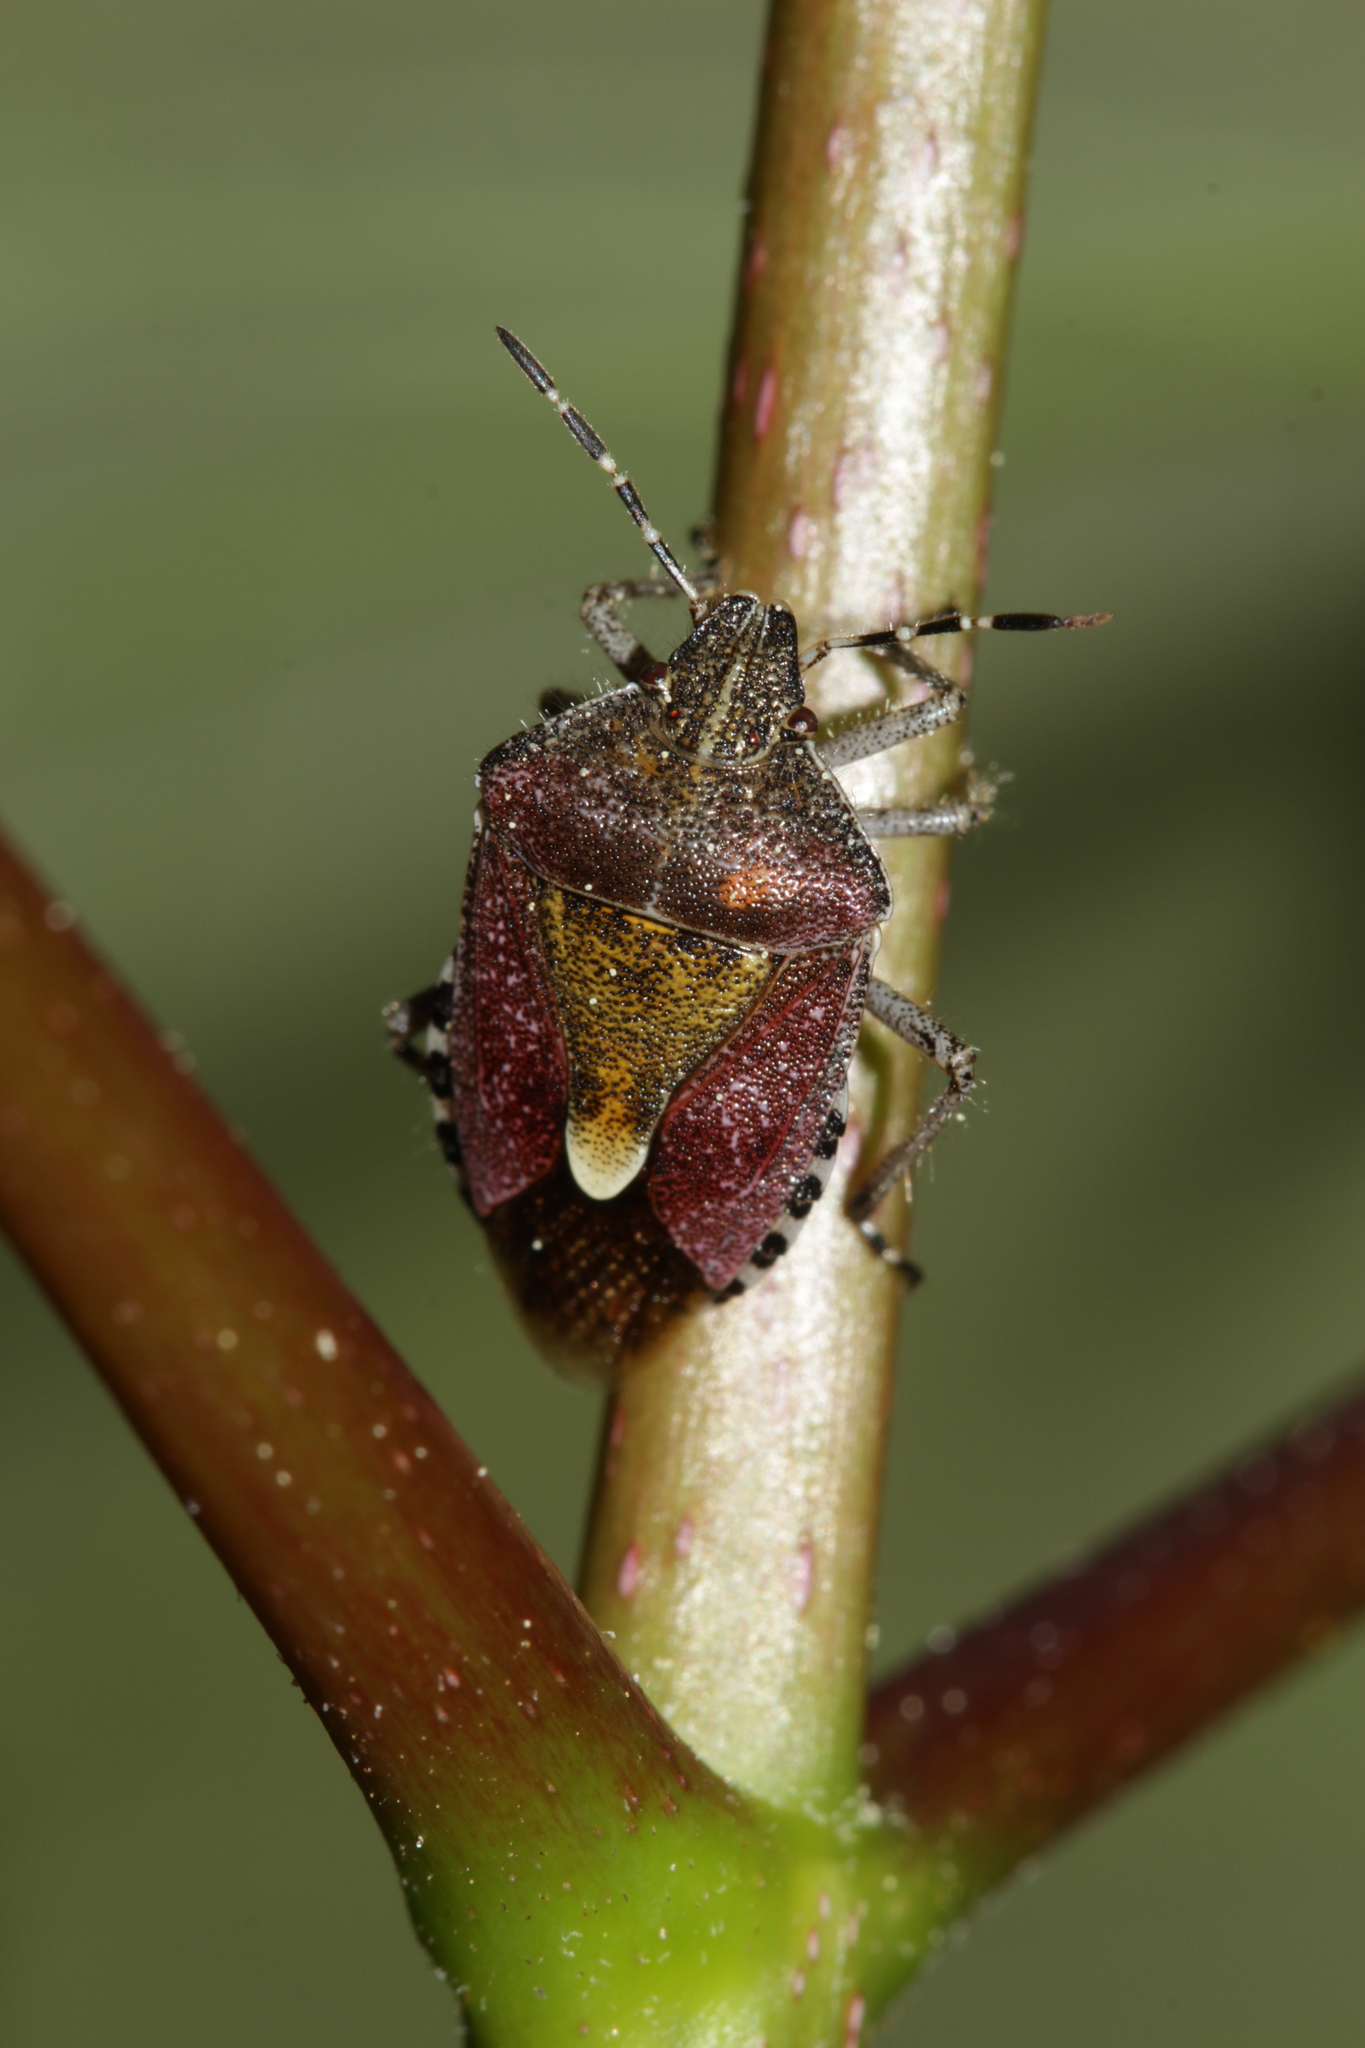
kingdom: Animalia
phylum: Arthropoda
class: Insecta
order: Hemiptera
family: Pentatomidae
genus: Dolycoris
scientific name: Dolycoris baccarum
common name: Sloe bug
